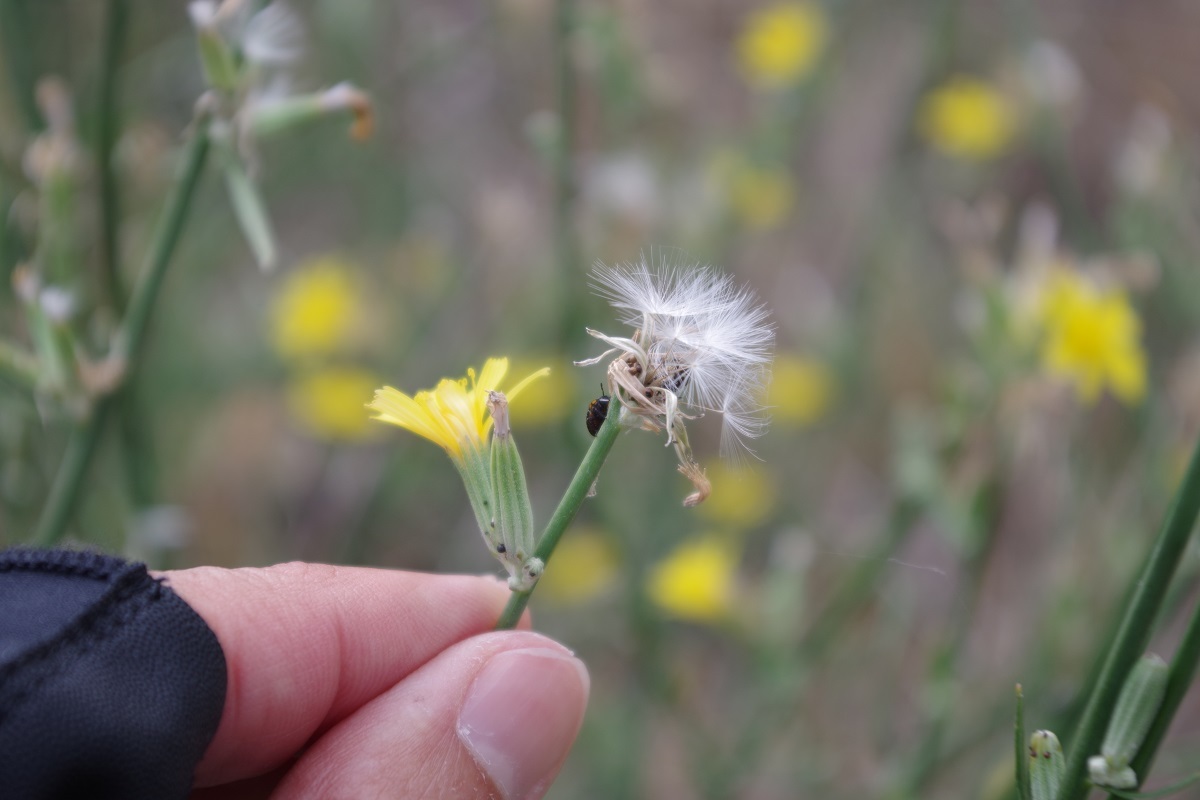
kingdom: Plantae
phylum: Tracheophyta
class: Magnoliopsida
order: Asterales
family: Asteraceae
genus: Chondrilla
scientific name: Chondrilla juncea
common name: Skeleton weed
